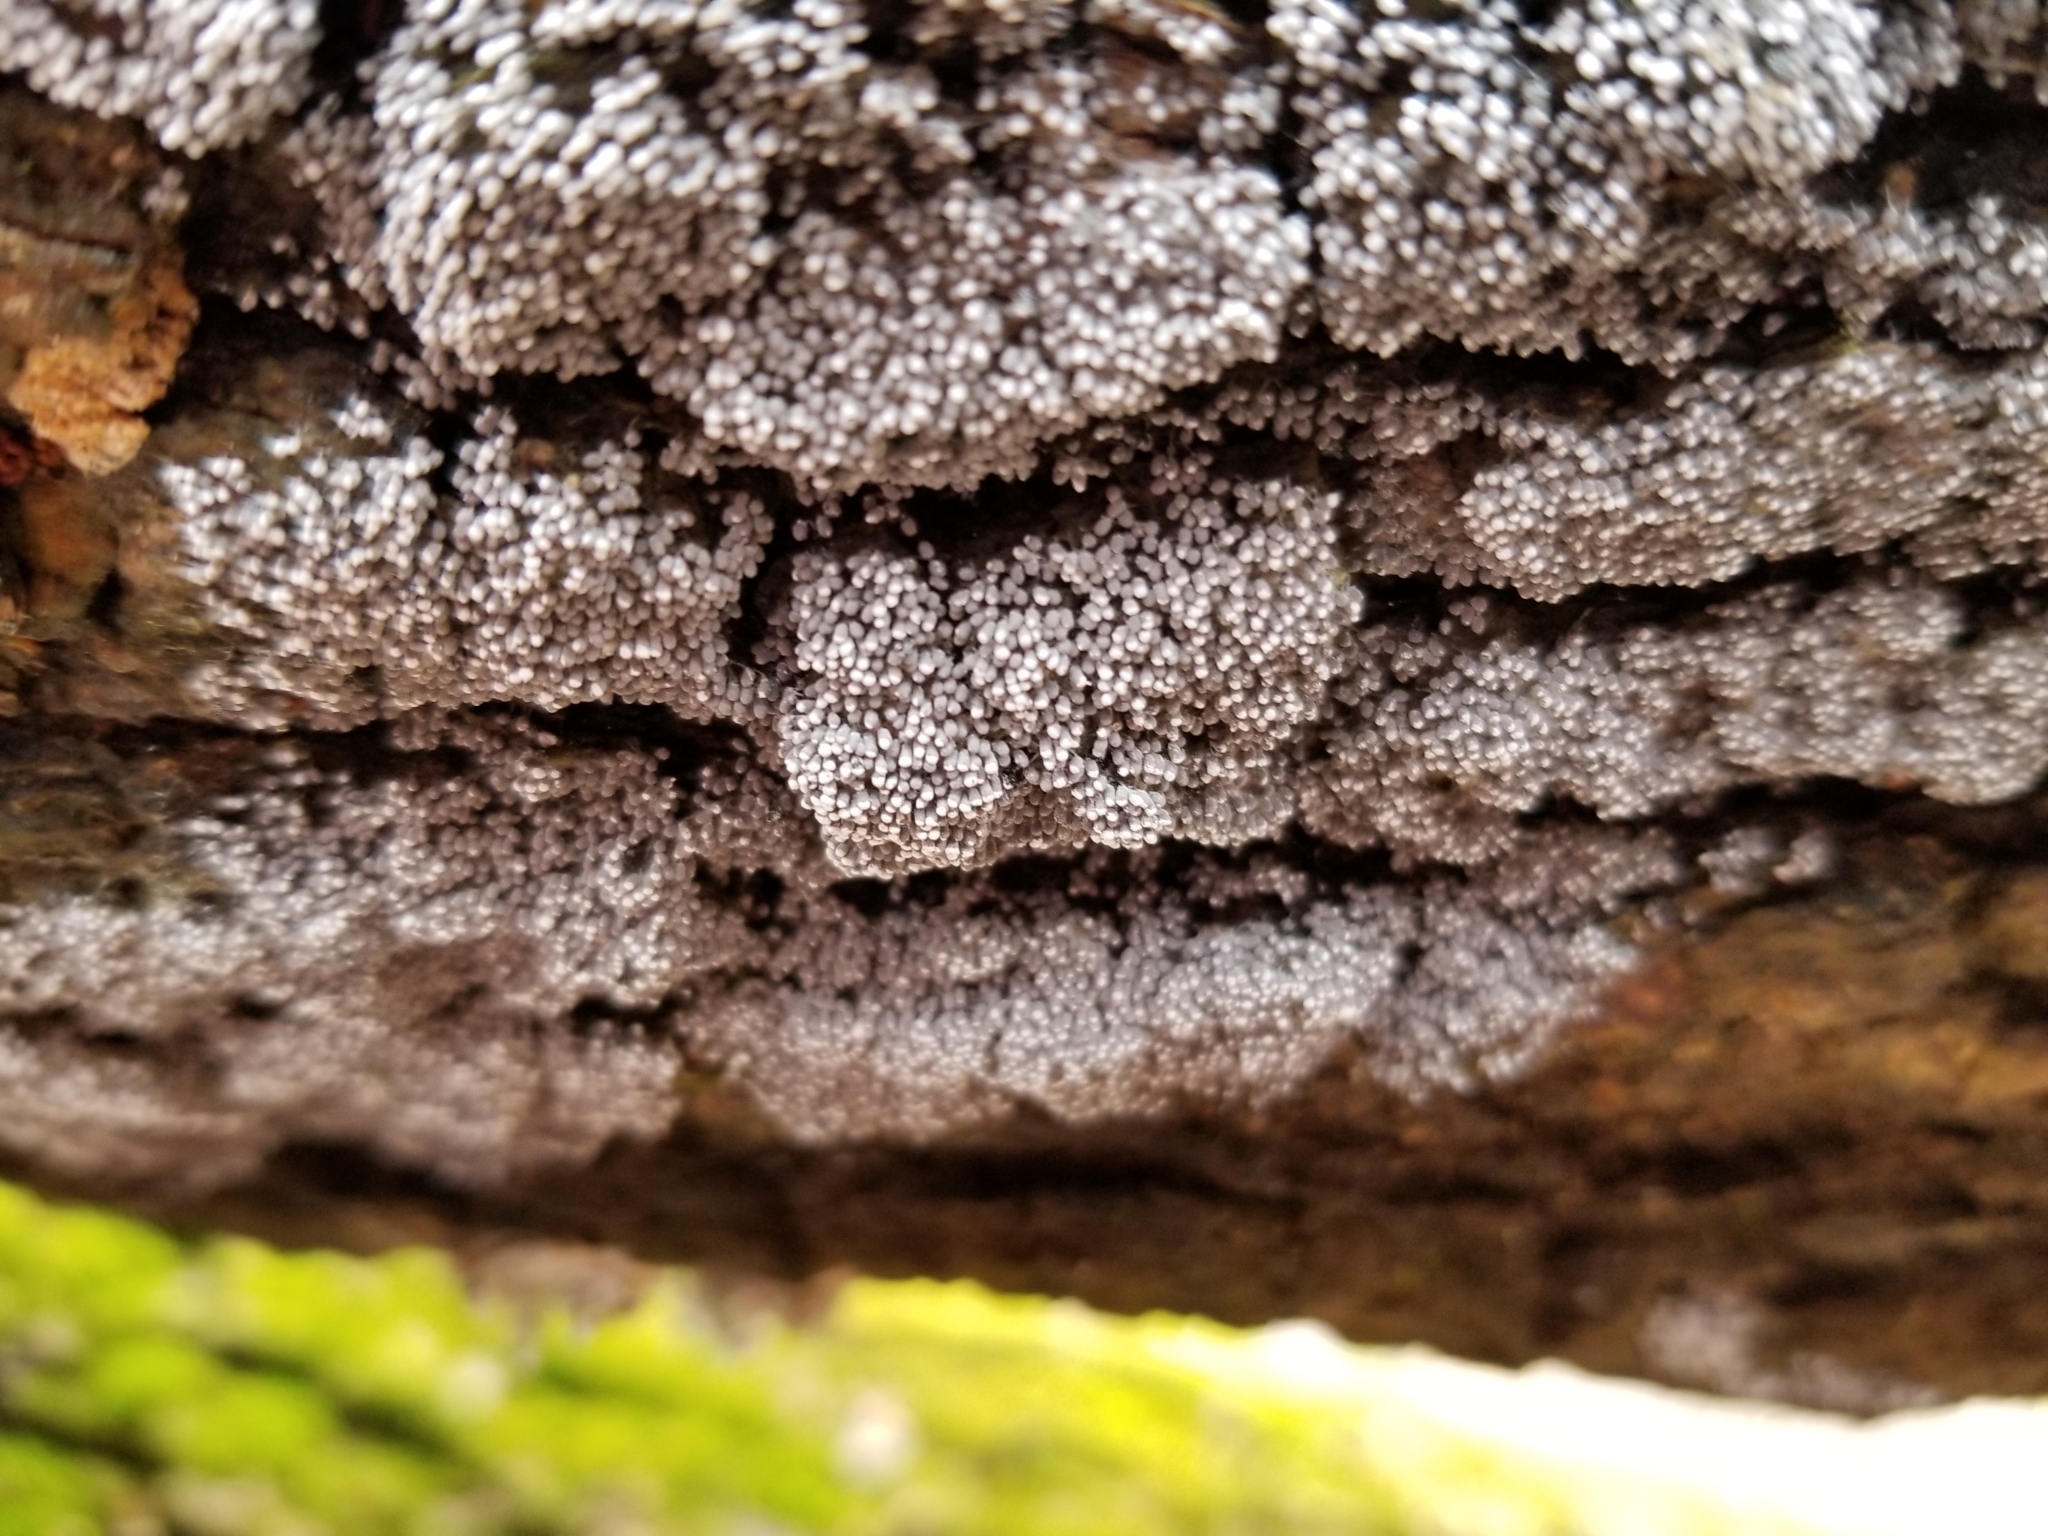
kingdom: Protozoa
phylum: Mycetozoa
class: Myxomycetes
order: Physarales
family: Physaraceae
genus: Badhamia
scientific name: Badhamia utricularis
